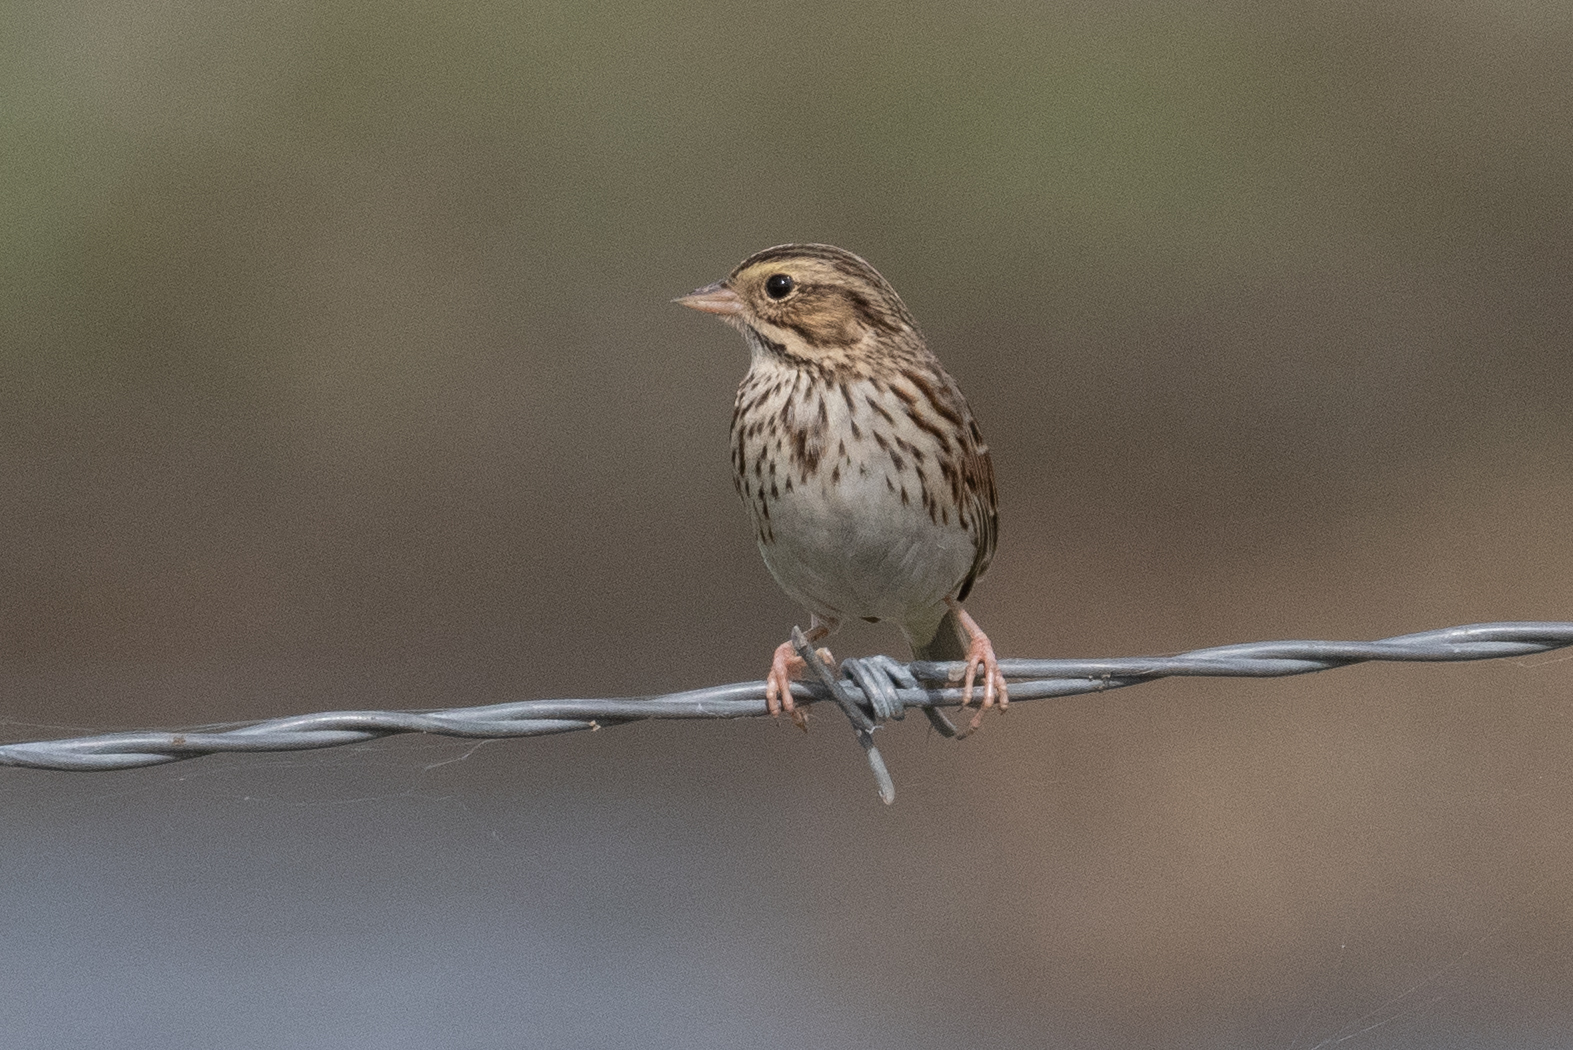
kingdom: Animalia
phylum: Chordata
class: Aves
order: Passeriformes
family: Passerellidae
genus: Passerculus
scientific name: Passerculus sandwichensis
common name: Savannah sparrow
